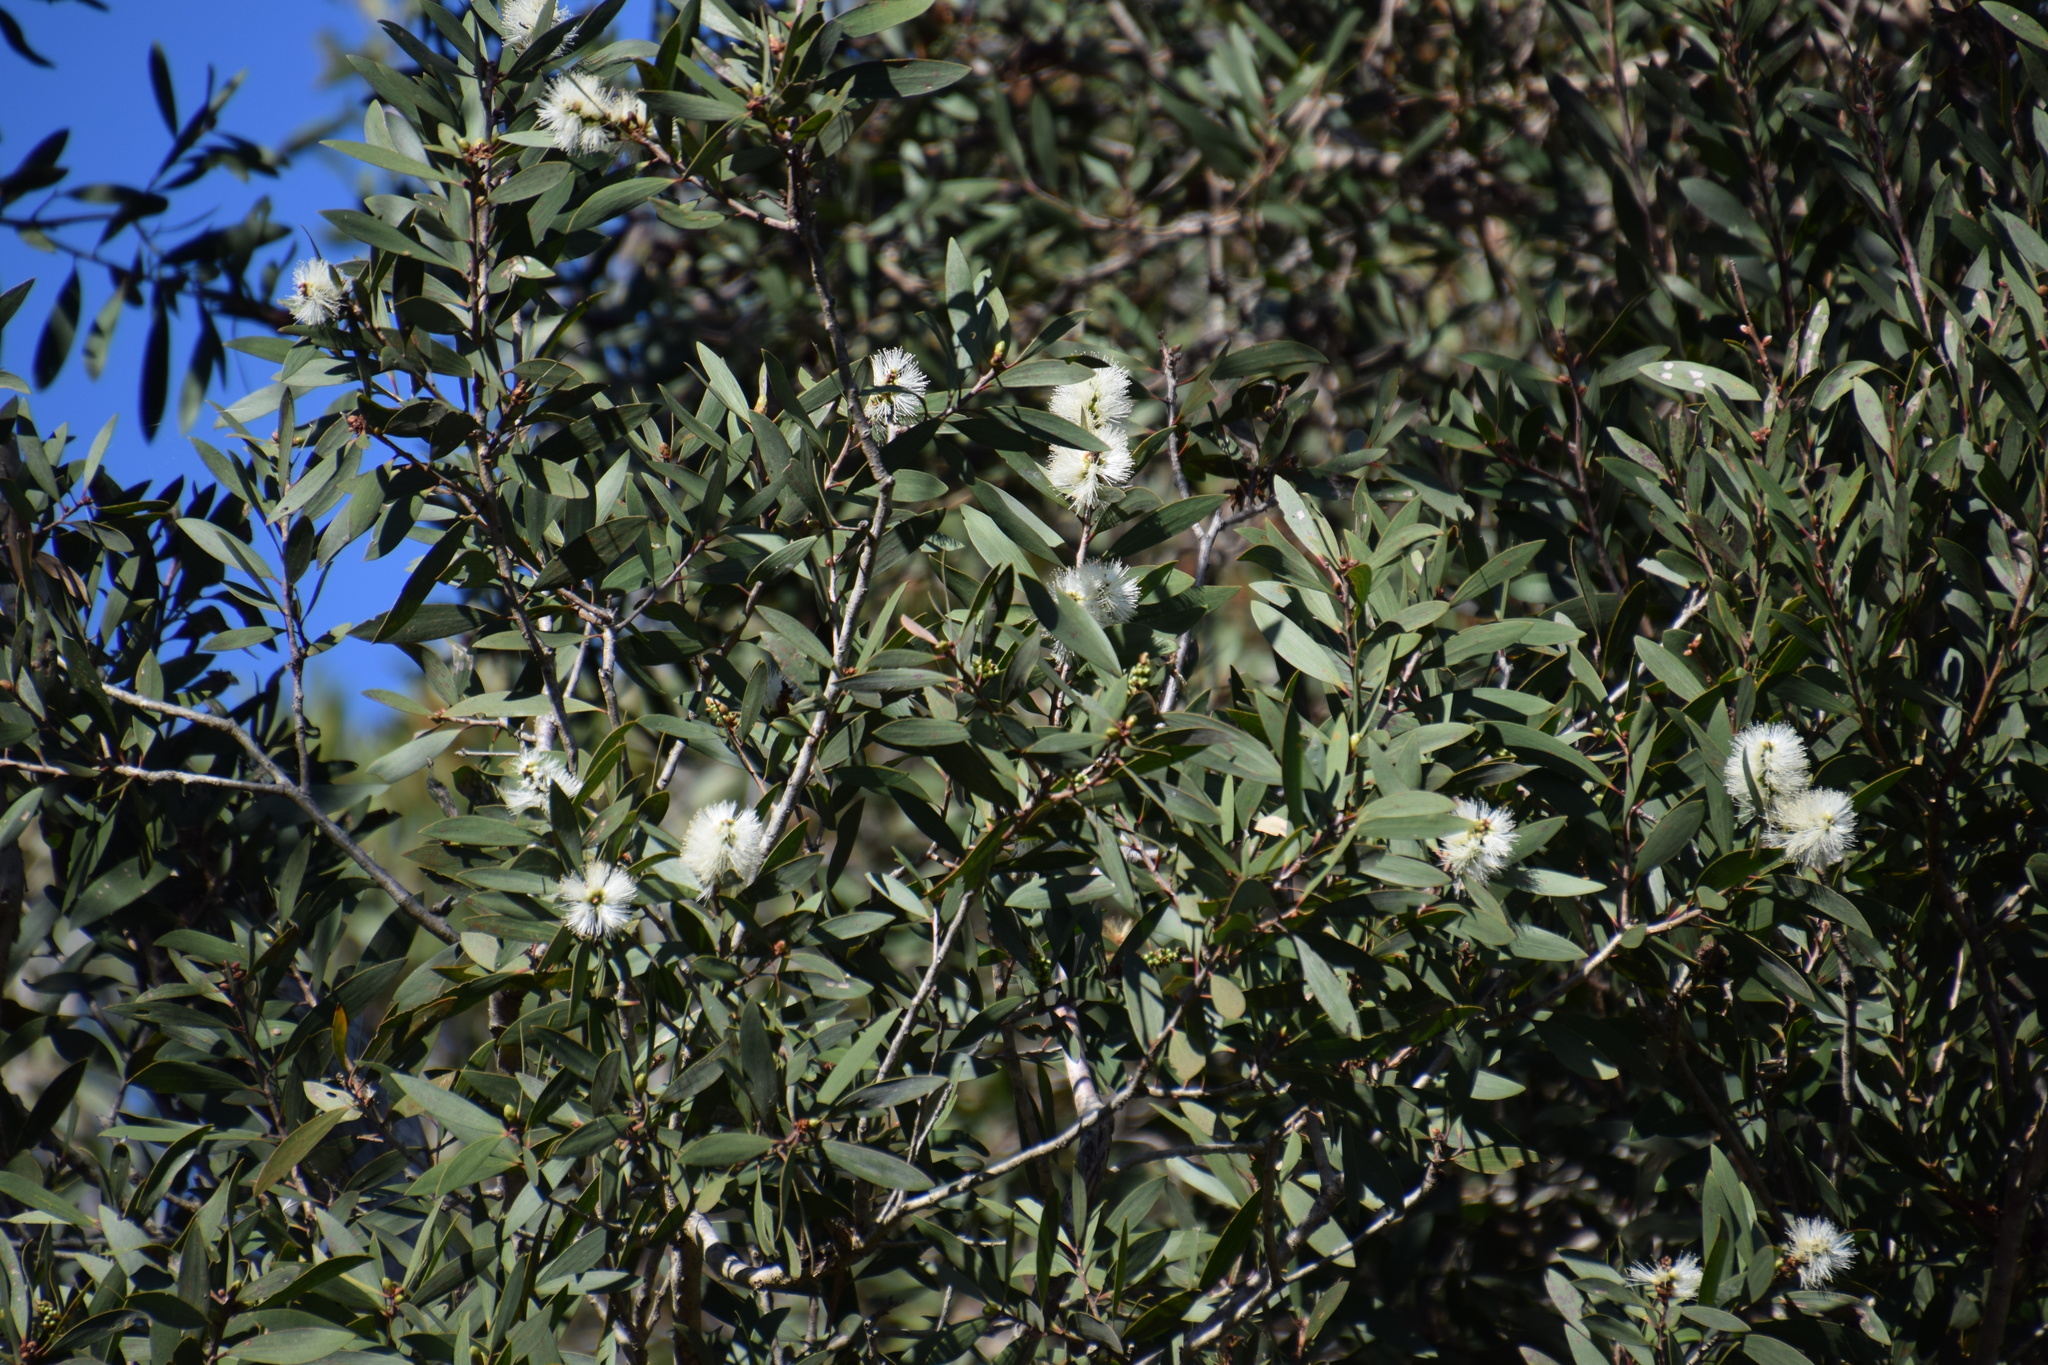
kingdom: Plantae
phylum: Tracheophyta
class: Magnoliopsida
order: Myrtales
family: Myrtaceae
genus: Melaleuca
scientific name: Melaleuca quinquenervia
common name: Punktree
